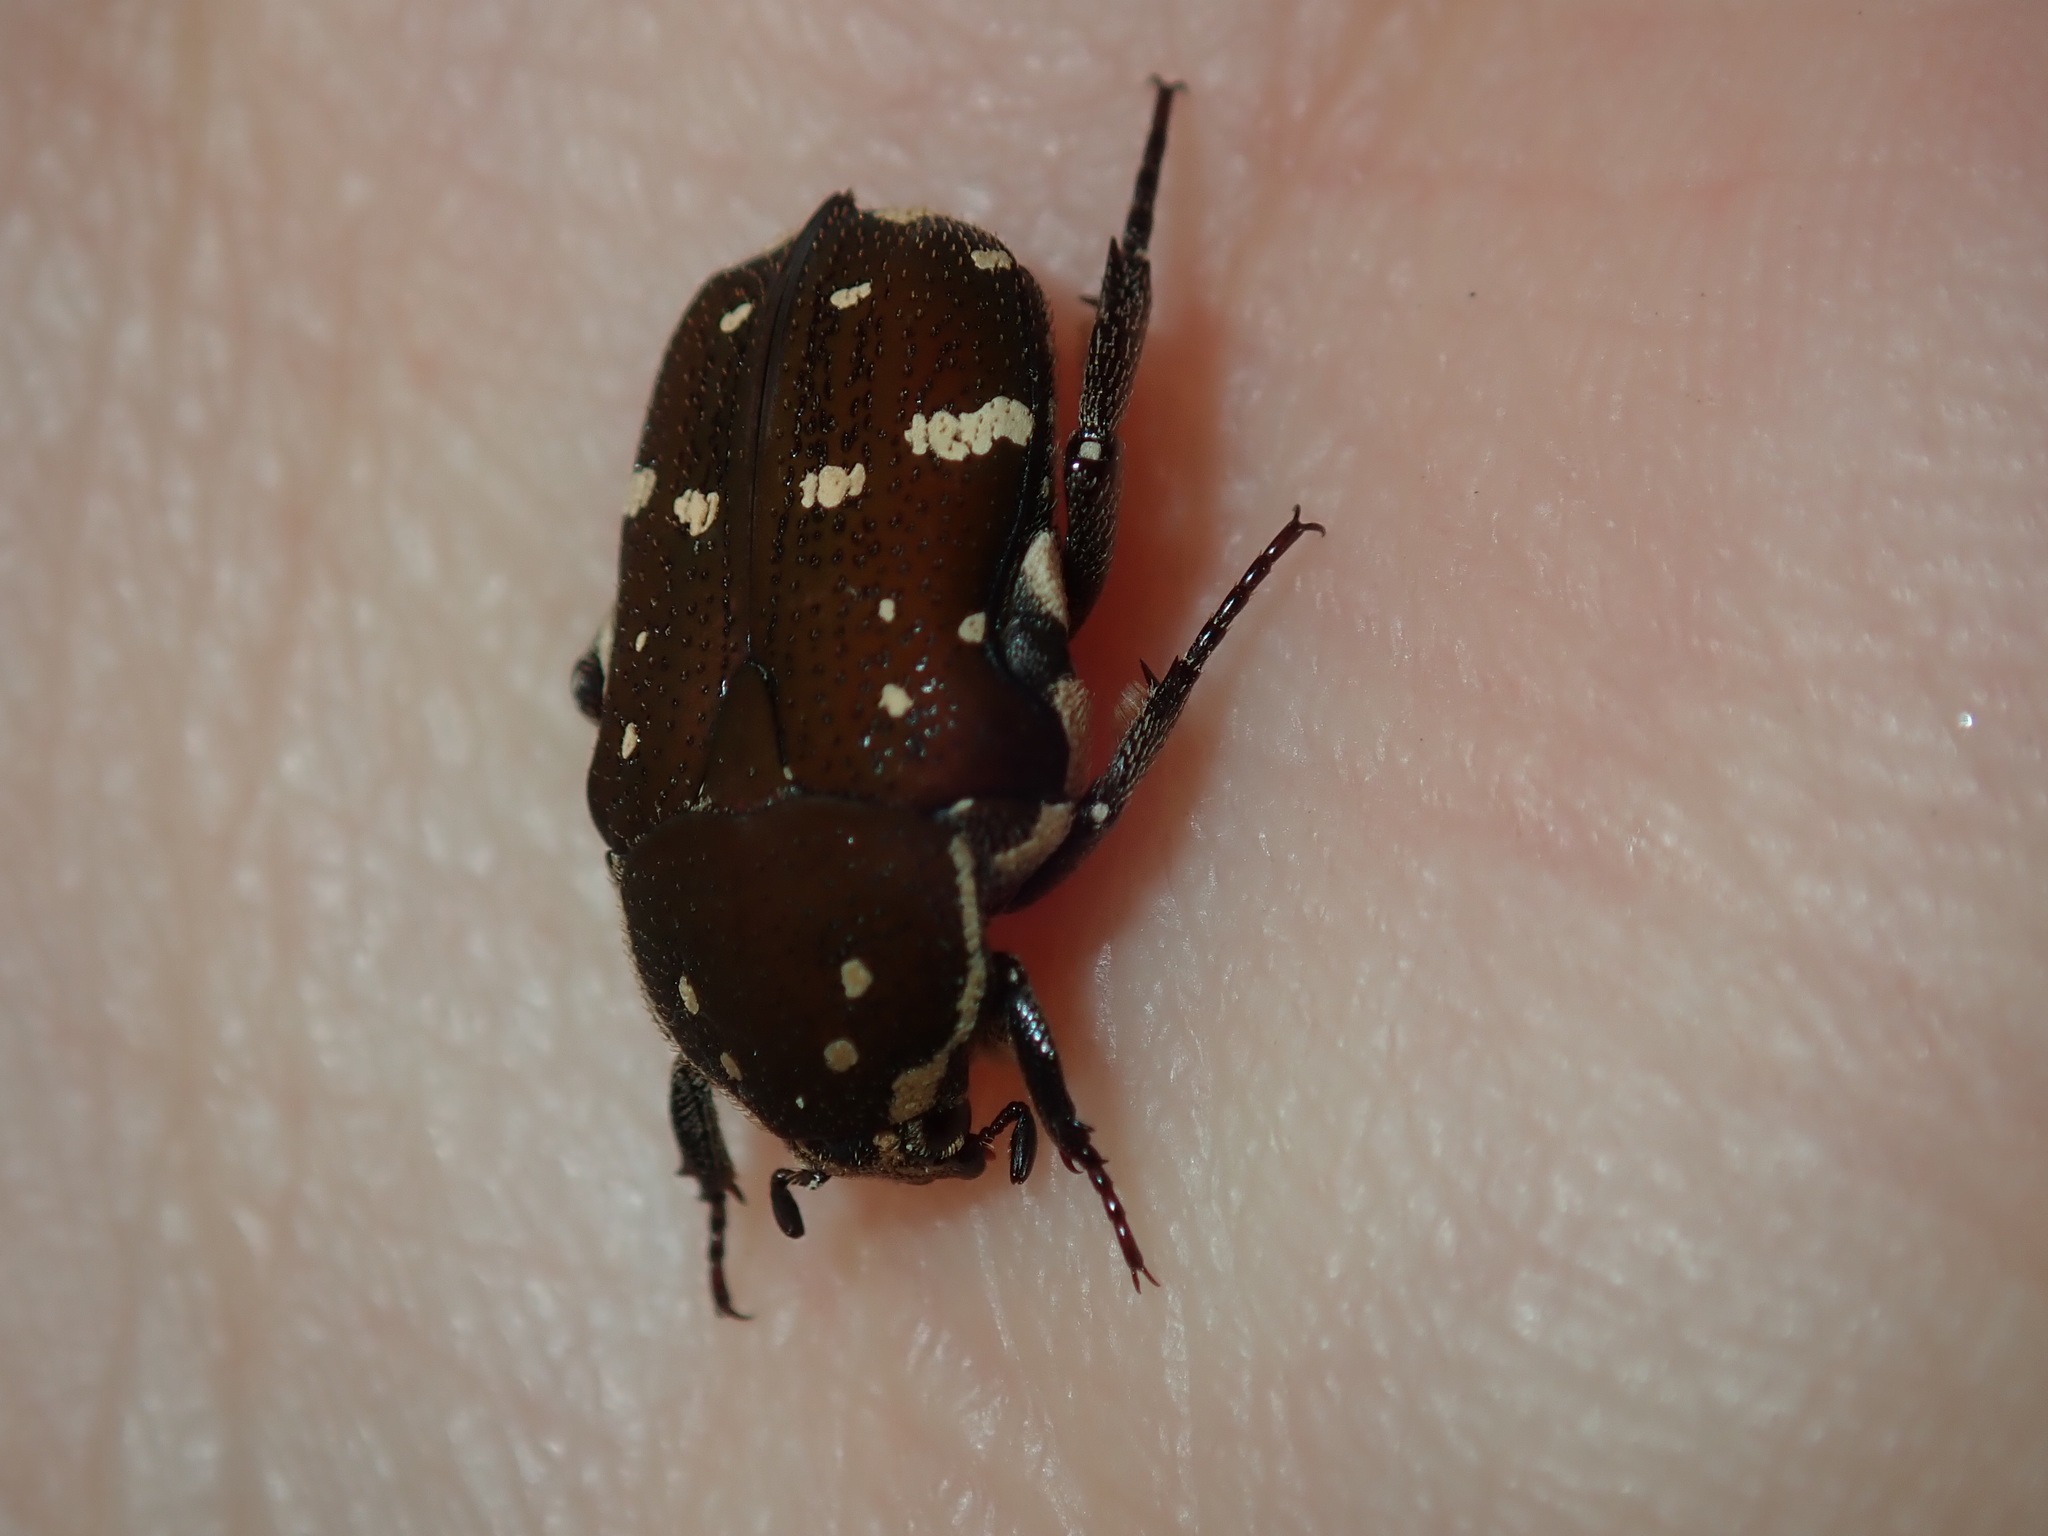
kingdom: Animalia
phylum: Arthropoda
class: Insecta
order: Coleoptera
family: Scarabaeidae
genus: Glycyphana
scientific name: Glycyphana stolata
